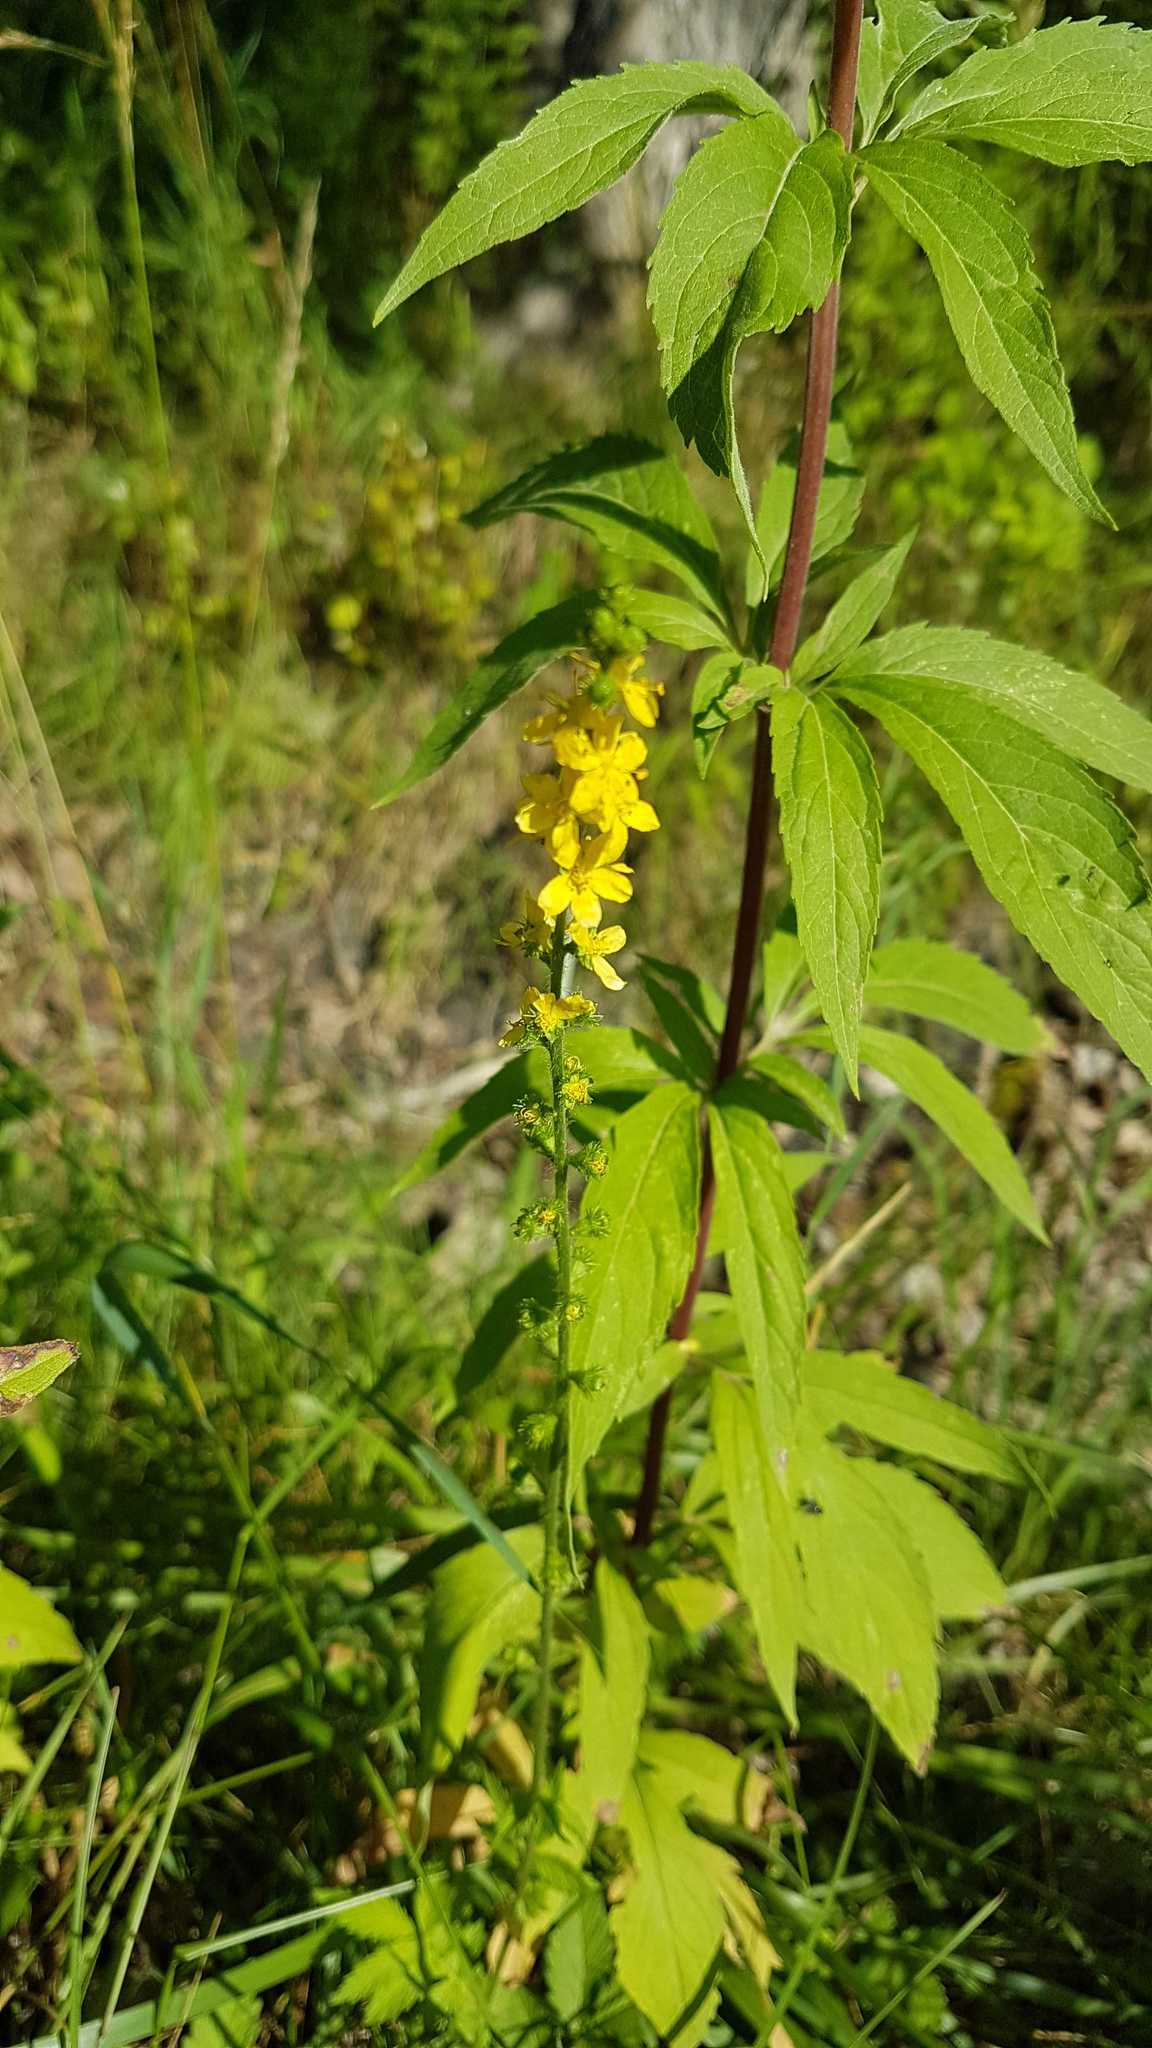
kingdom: Plantae
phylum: Tracheophyta
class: Magnoliopsida
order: Rosales
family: Rosaceae
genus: Agrimonia
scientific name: Agrimonia eupatoria
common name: Agrimony
